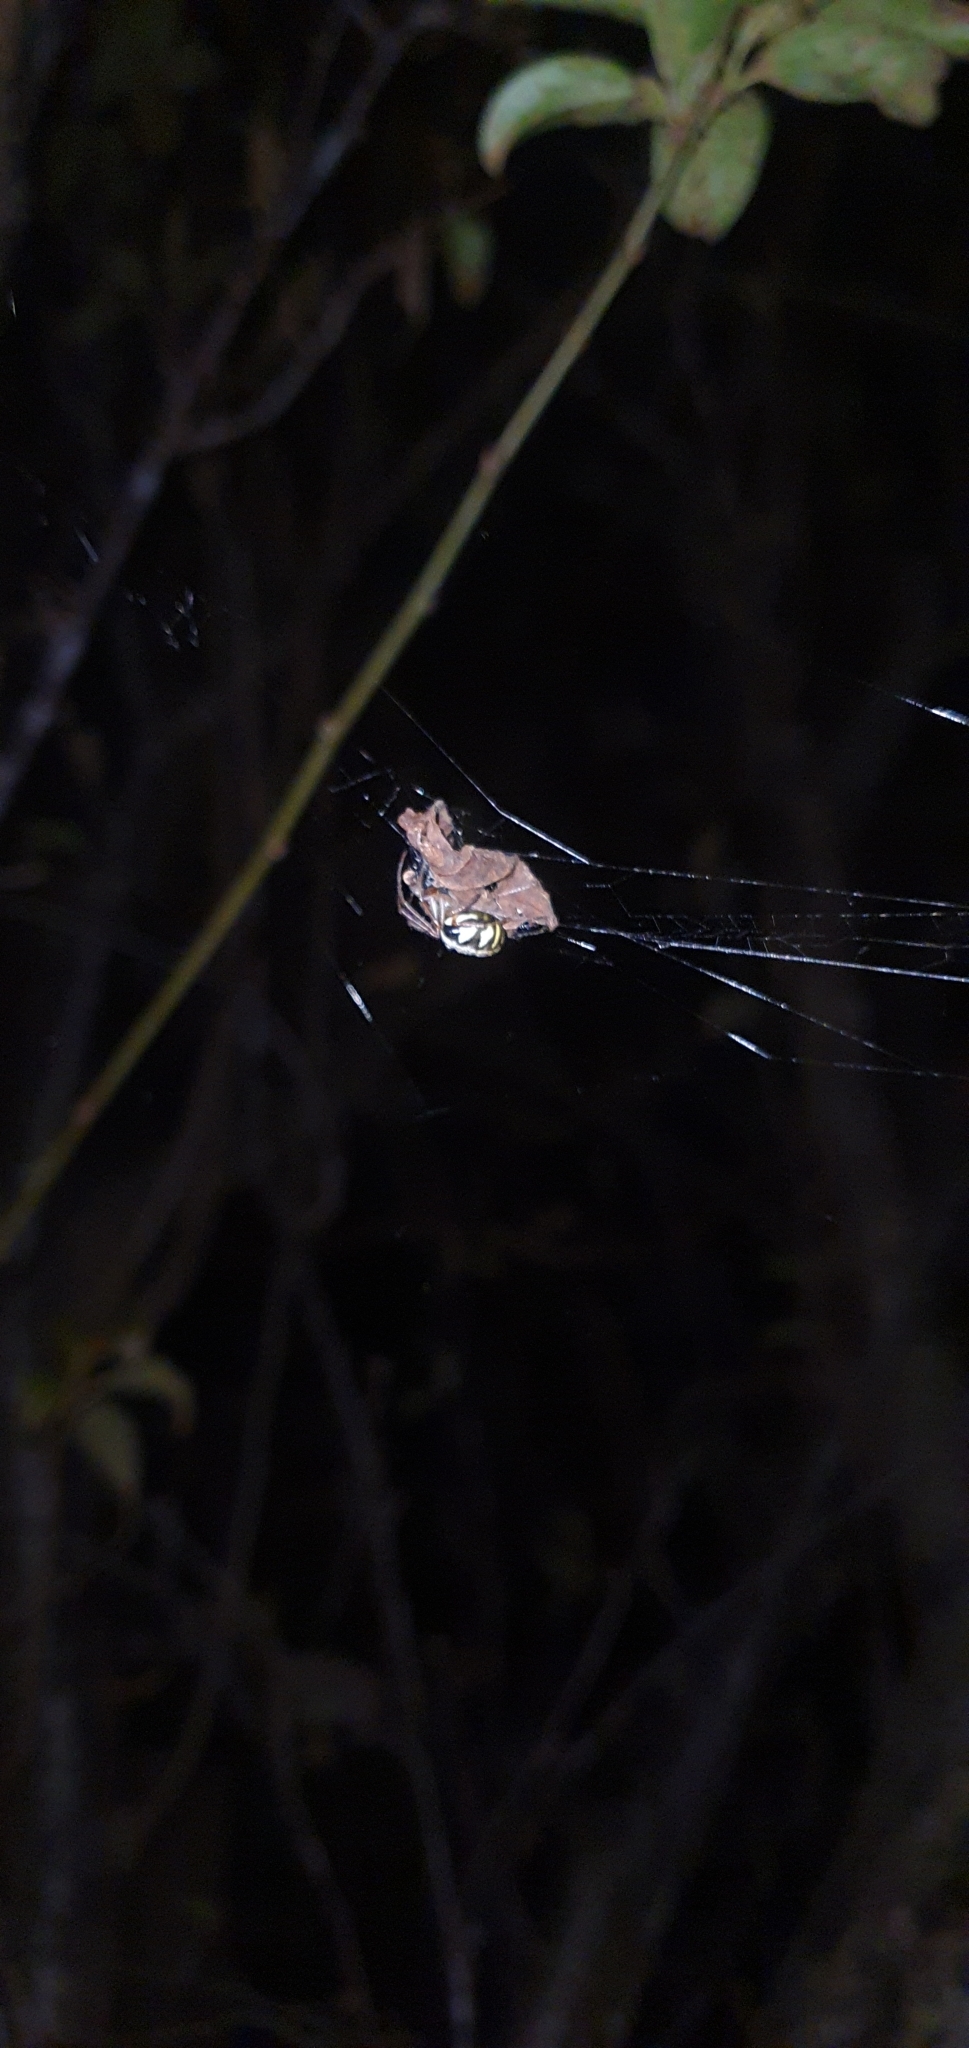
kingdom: Animalia
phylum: Arthropoda
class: Arachnida
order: Araneae
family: Araneidae
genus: Phonognatha
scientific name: Phonognatha graeffei
